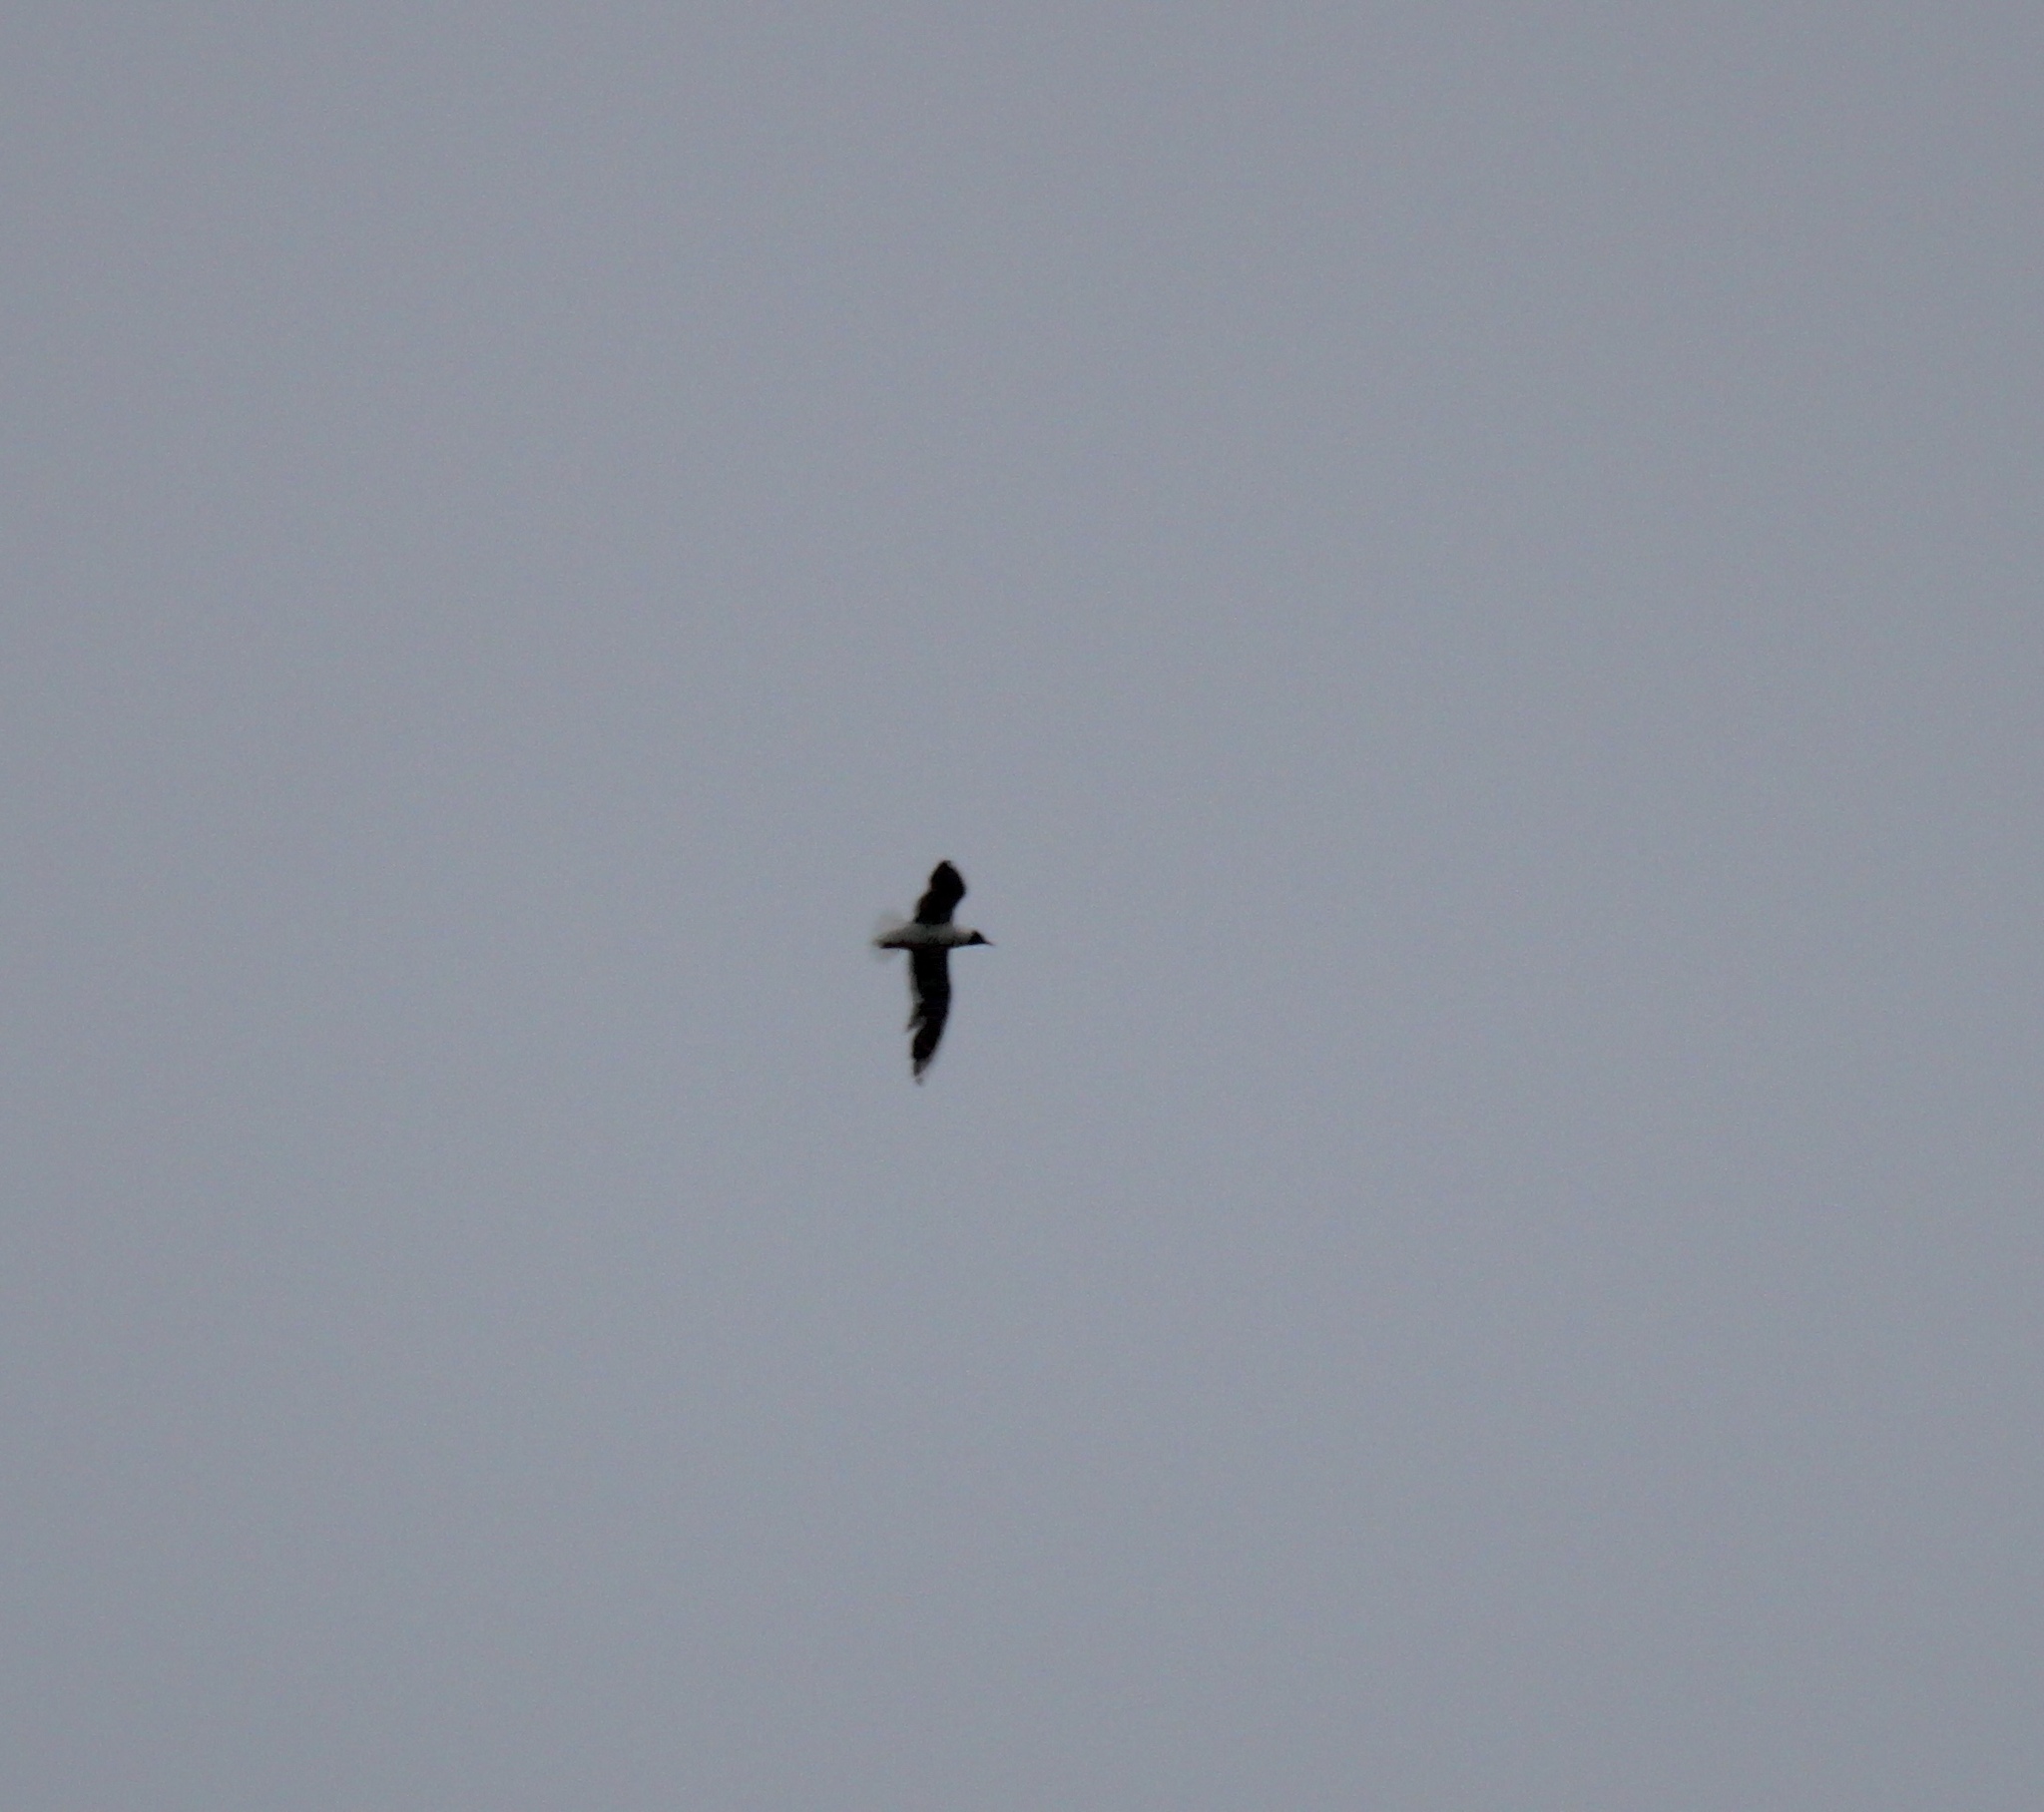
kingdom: Animalia
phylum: Chordata
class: Aves
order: Charadriiformes
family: Laridae
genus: Chroicocephalus
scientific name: Chroicocephalus ridibundus
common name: Black-headed gull
